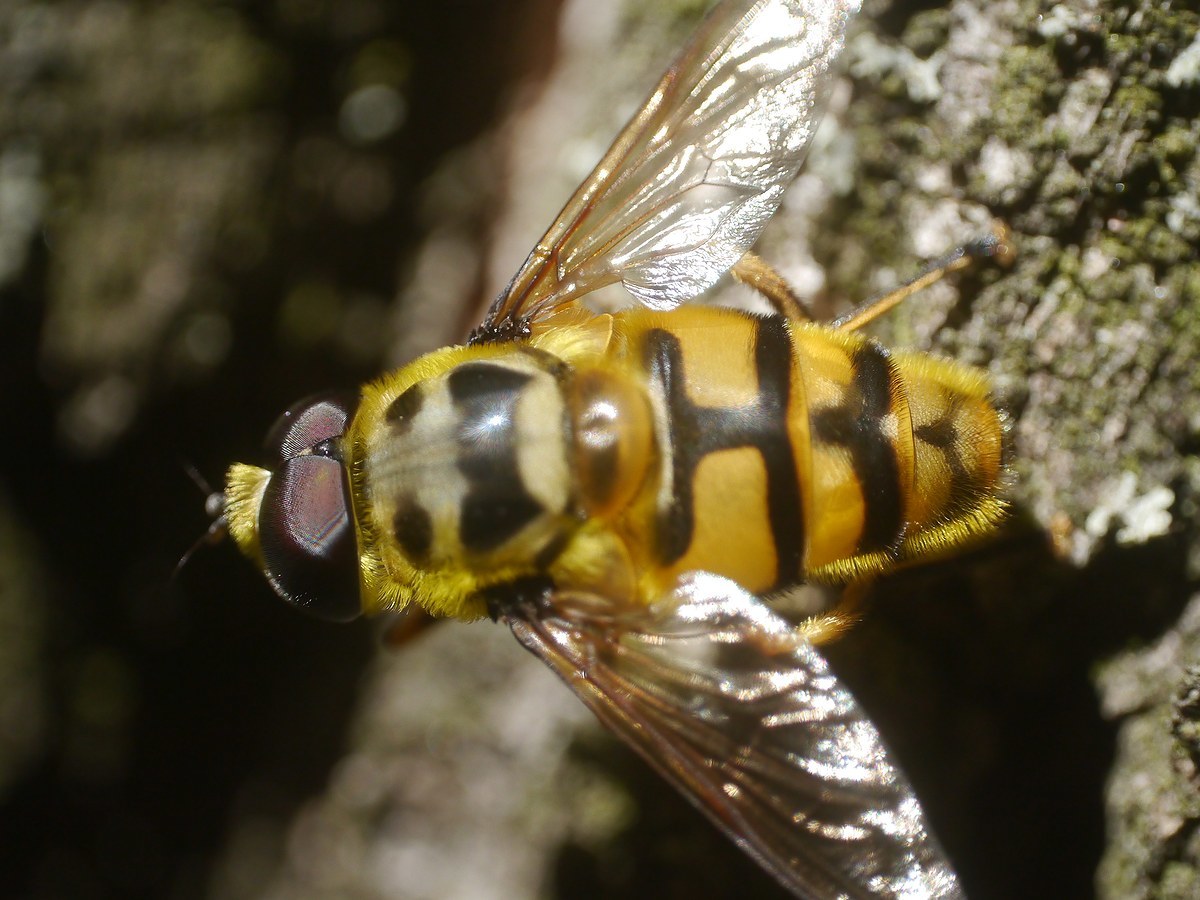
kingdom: Animalia
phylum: Arthropoda
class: Insecta
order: Diptera
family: Syrphidae
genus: Myathropa
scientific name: Myathropa florea
